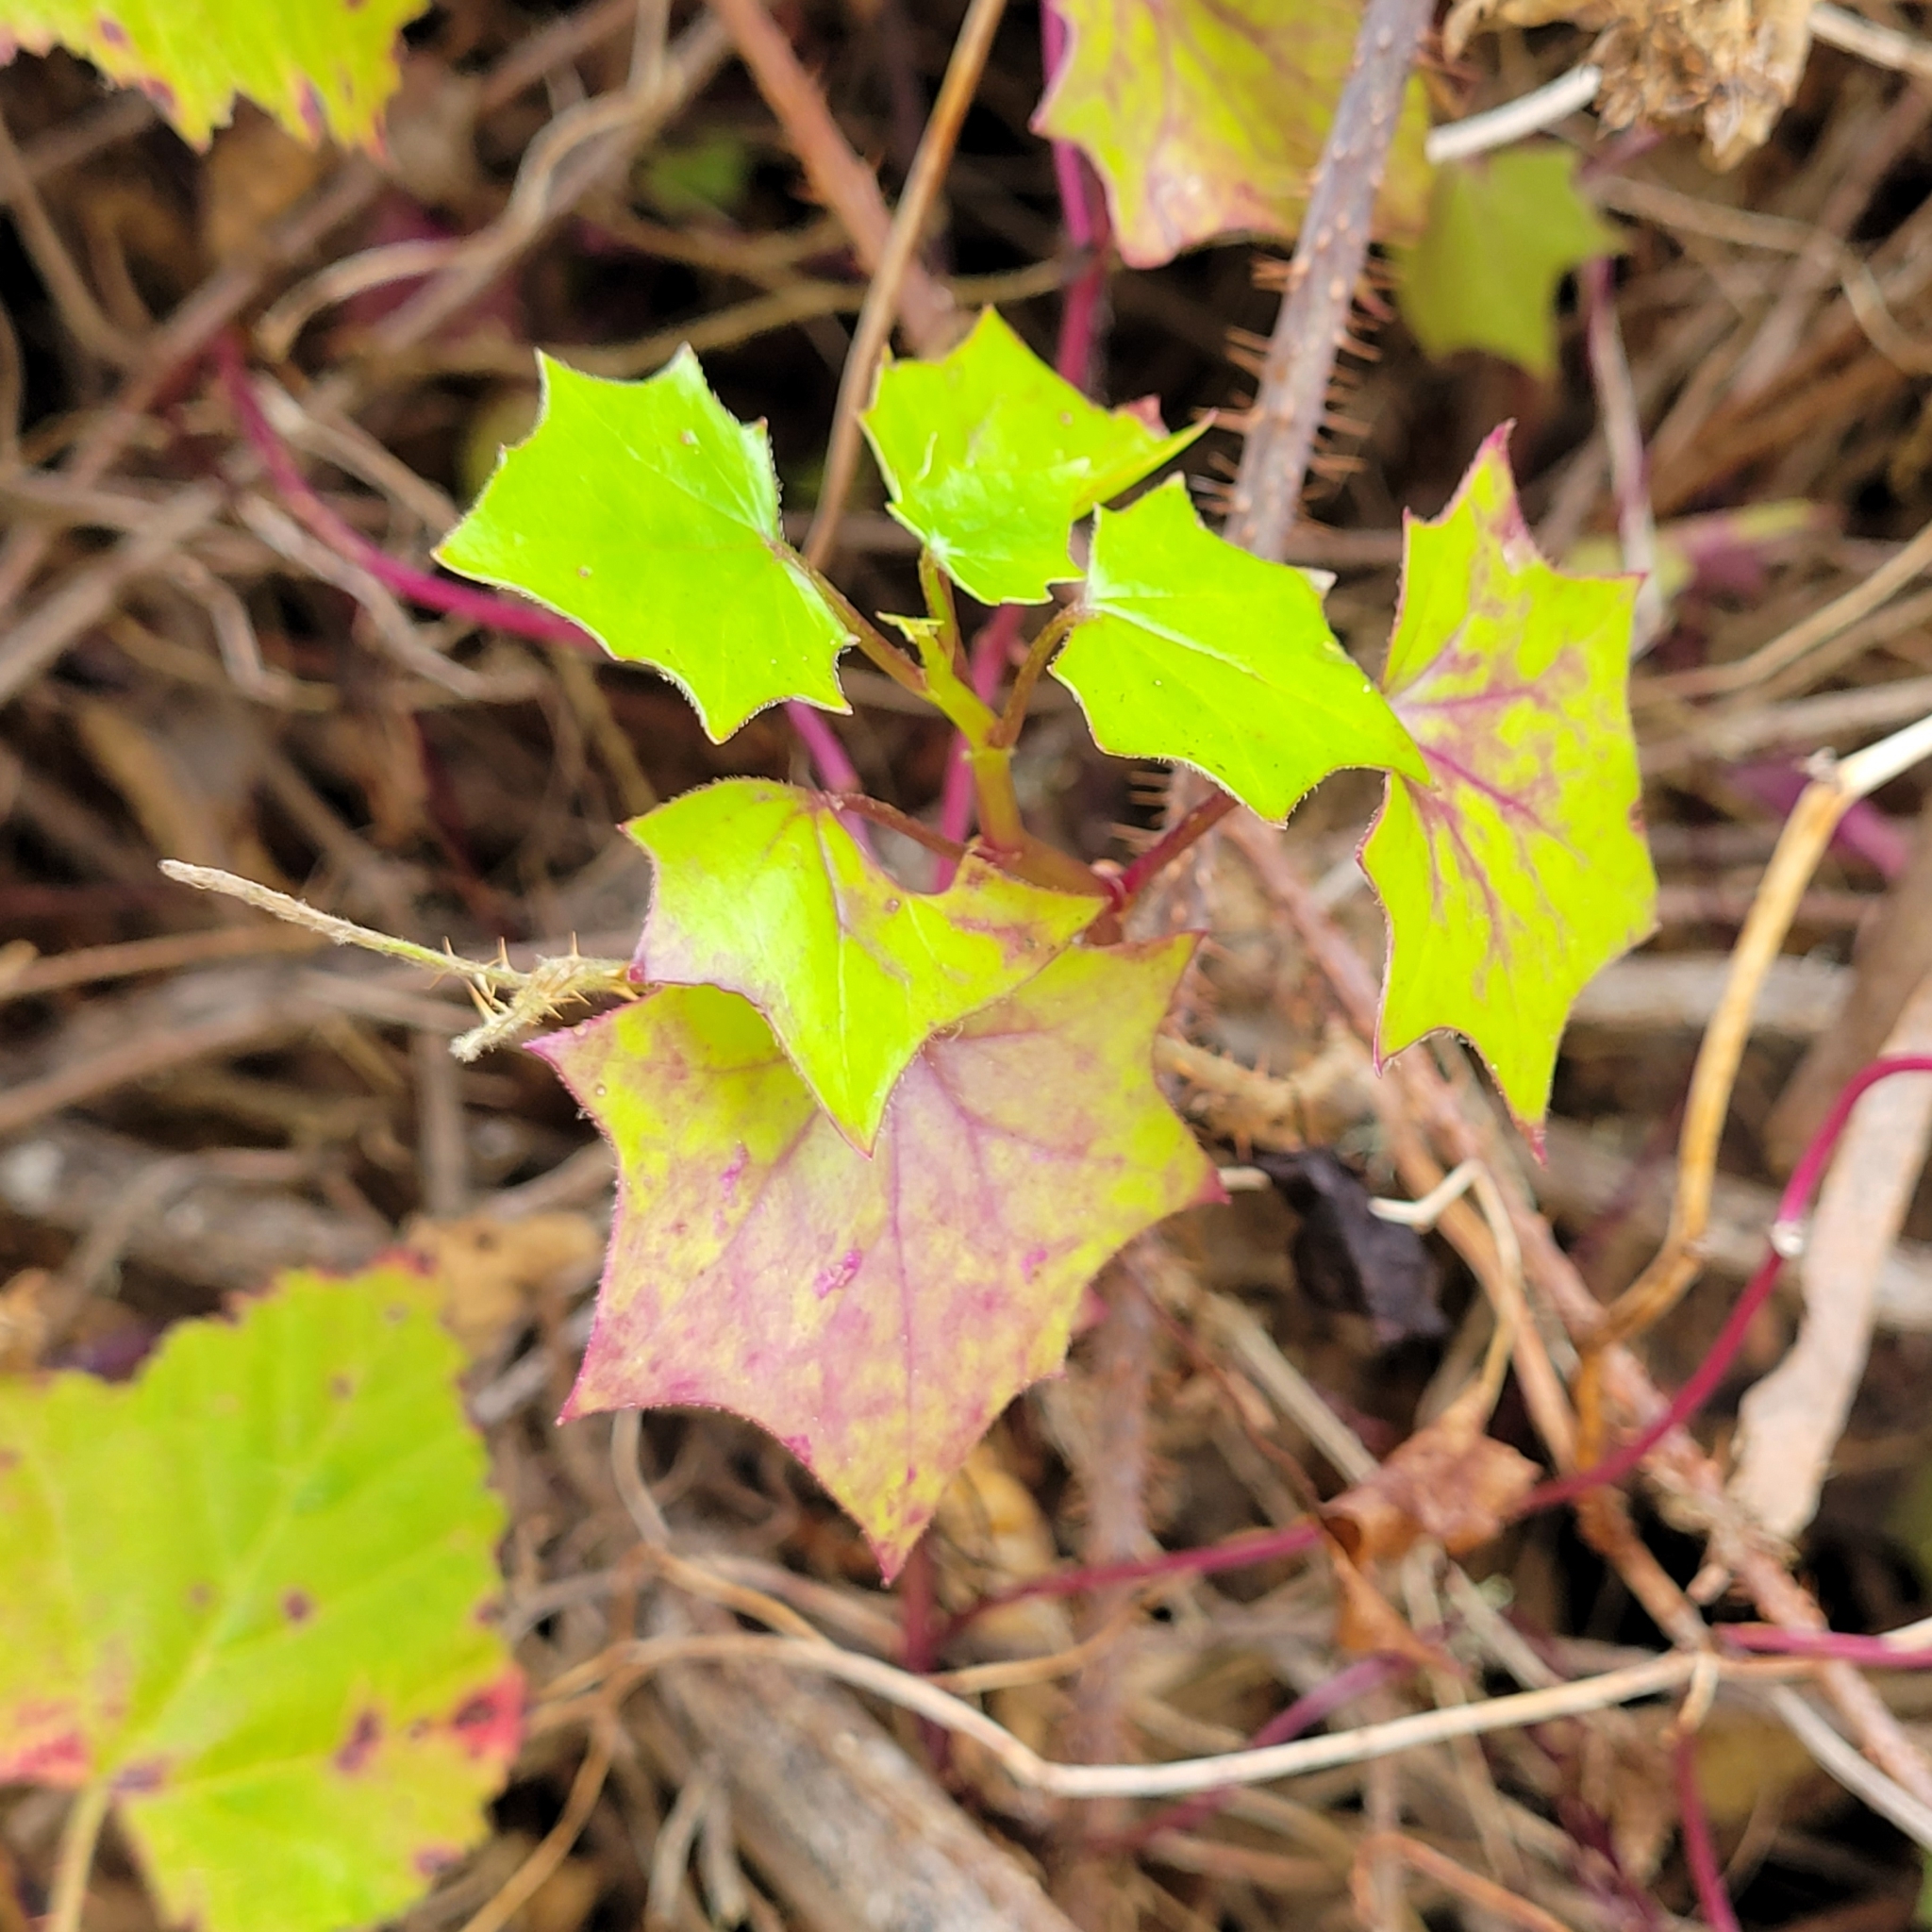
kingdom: Plantae
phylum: Tracheophyta
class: Magnoliopsida
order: Asterales
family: Asteraceae
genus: Delairea
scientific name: Delairea odorata
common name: Cape-ivy
